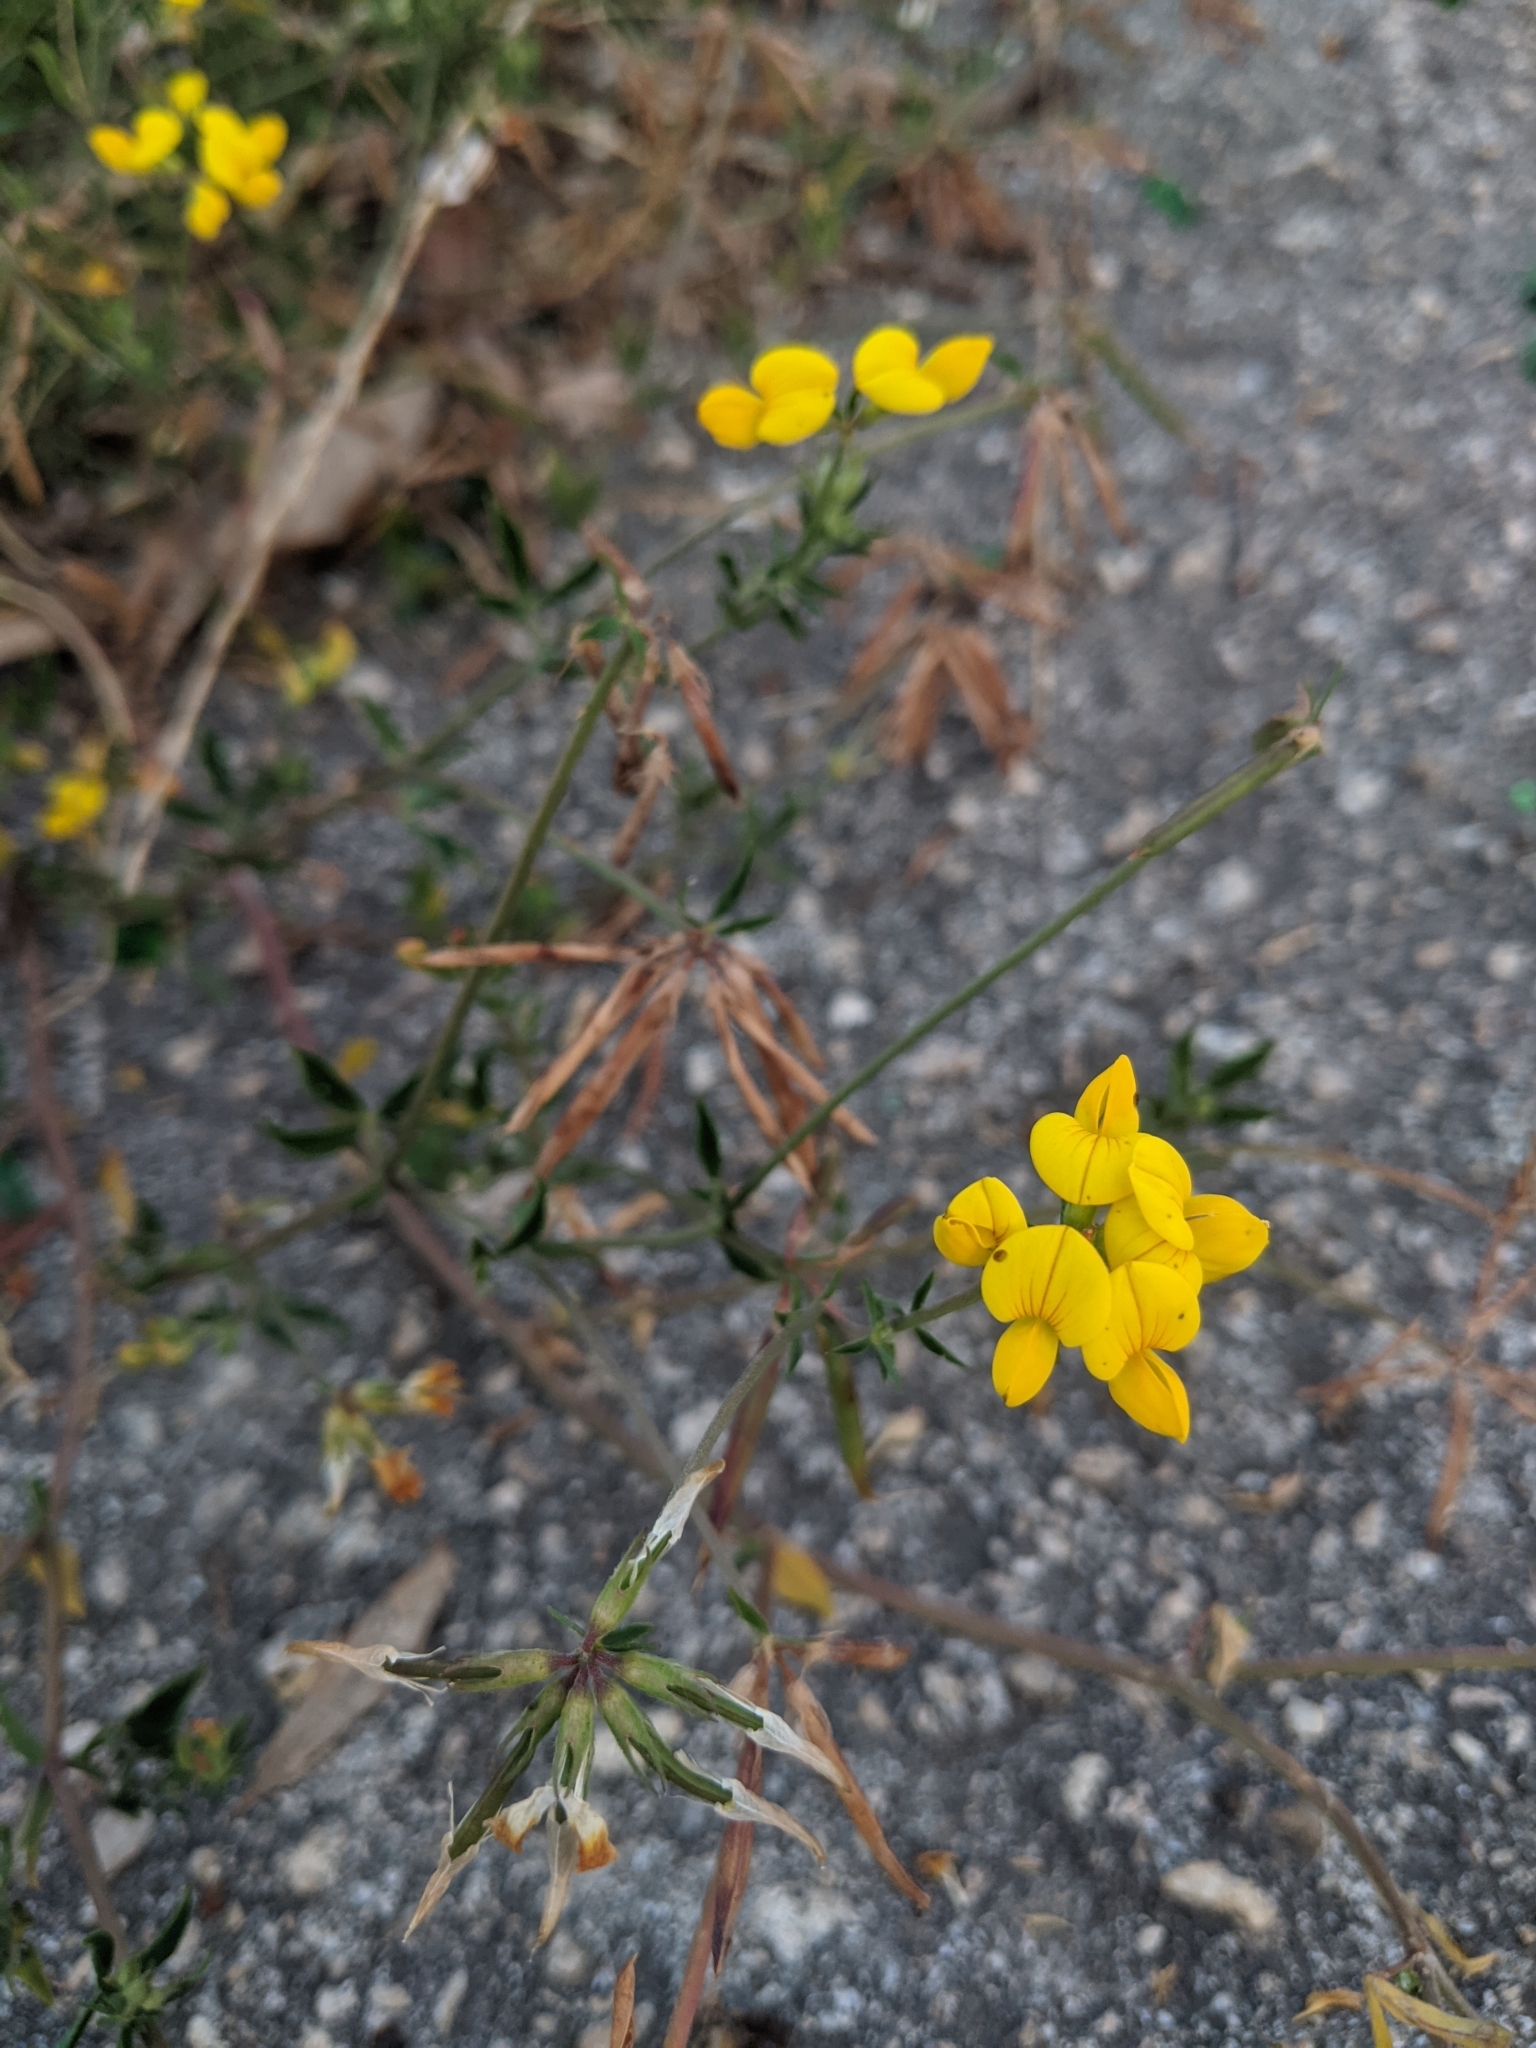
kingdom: Plantae
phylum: Tracheophyta
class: Magnoliopsida
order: Fabales
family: Fabaceae
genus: Lotus
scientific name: Lotus corniculatus
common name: Common bird's-foot-trefoil
